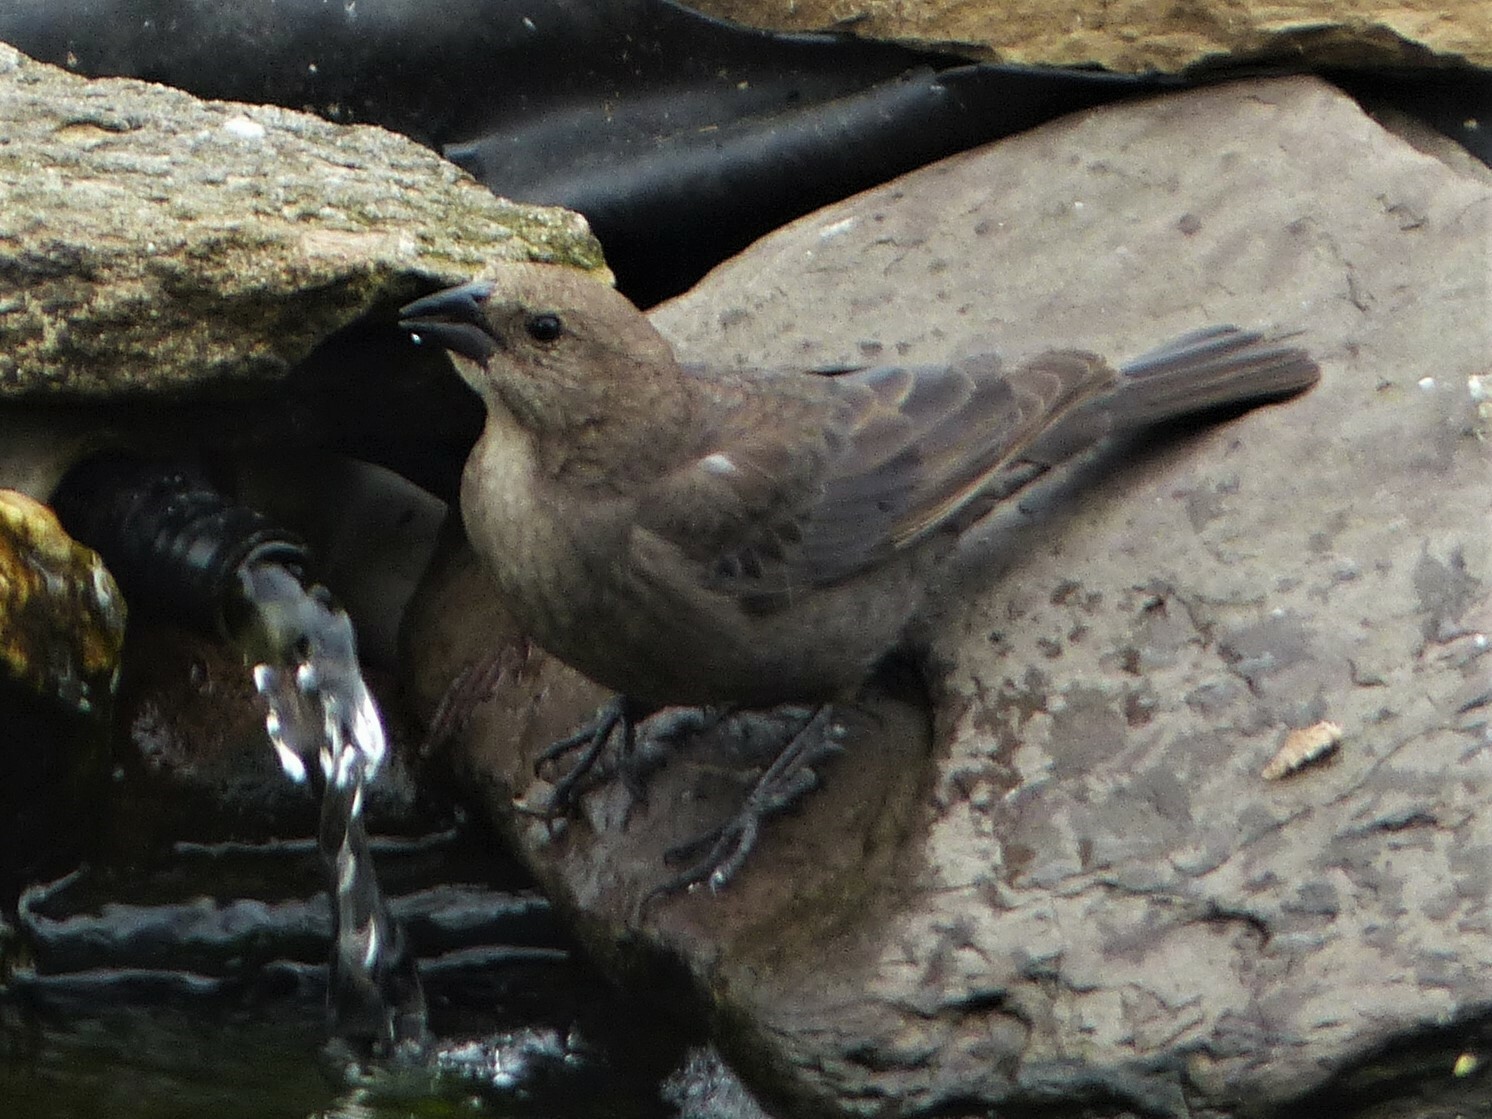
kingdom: Animalia
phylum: Chordata
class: Aves
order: Passeriformes
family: Icteridae
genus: Molothrus
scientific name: Molothrus ater
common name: Brown-headed cowbird
